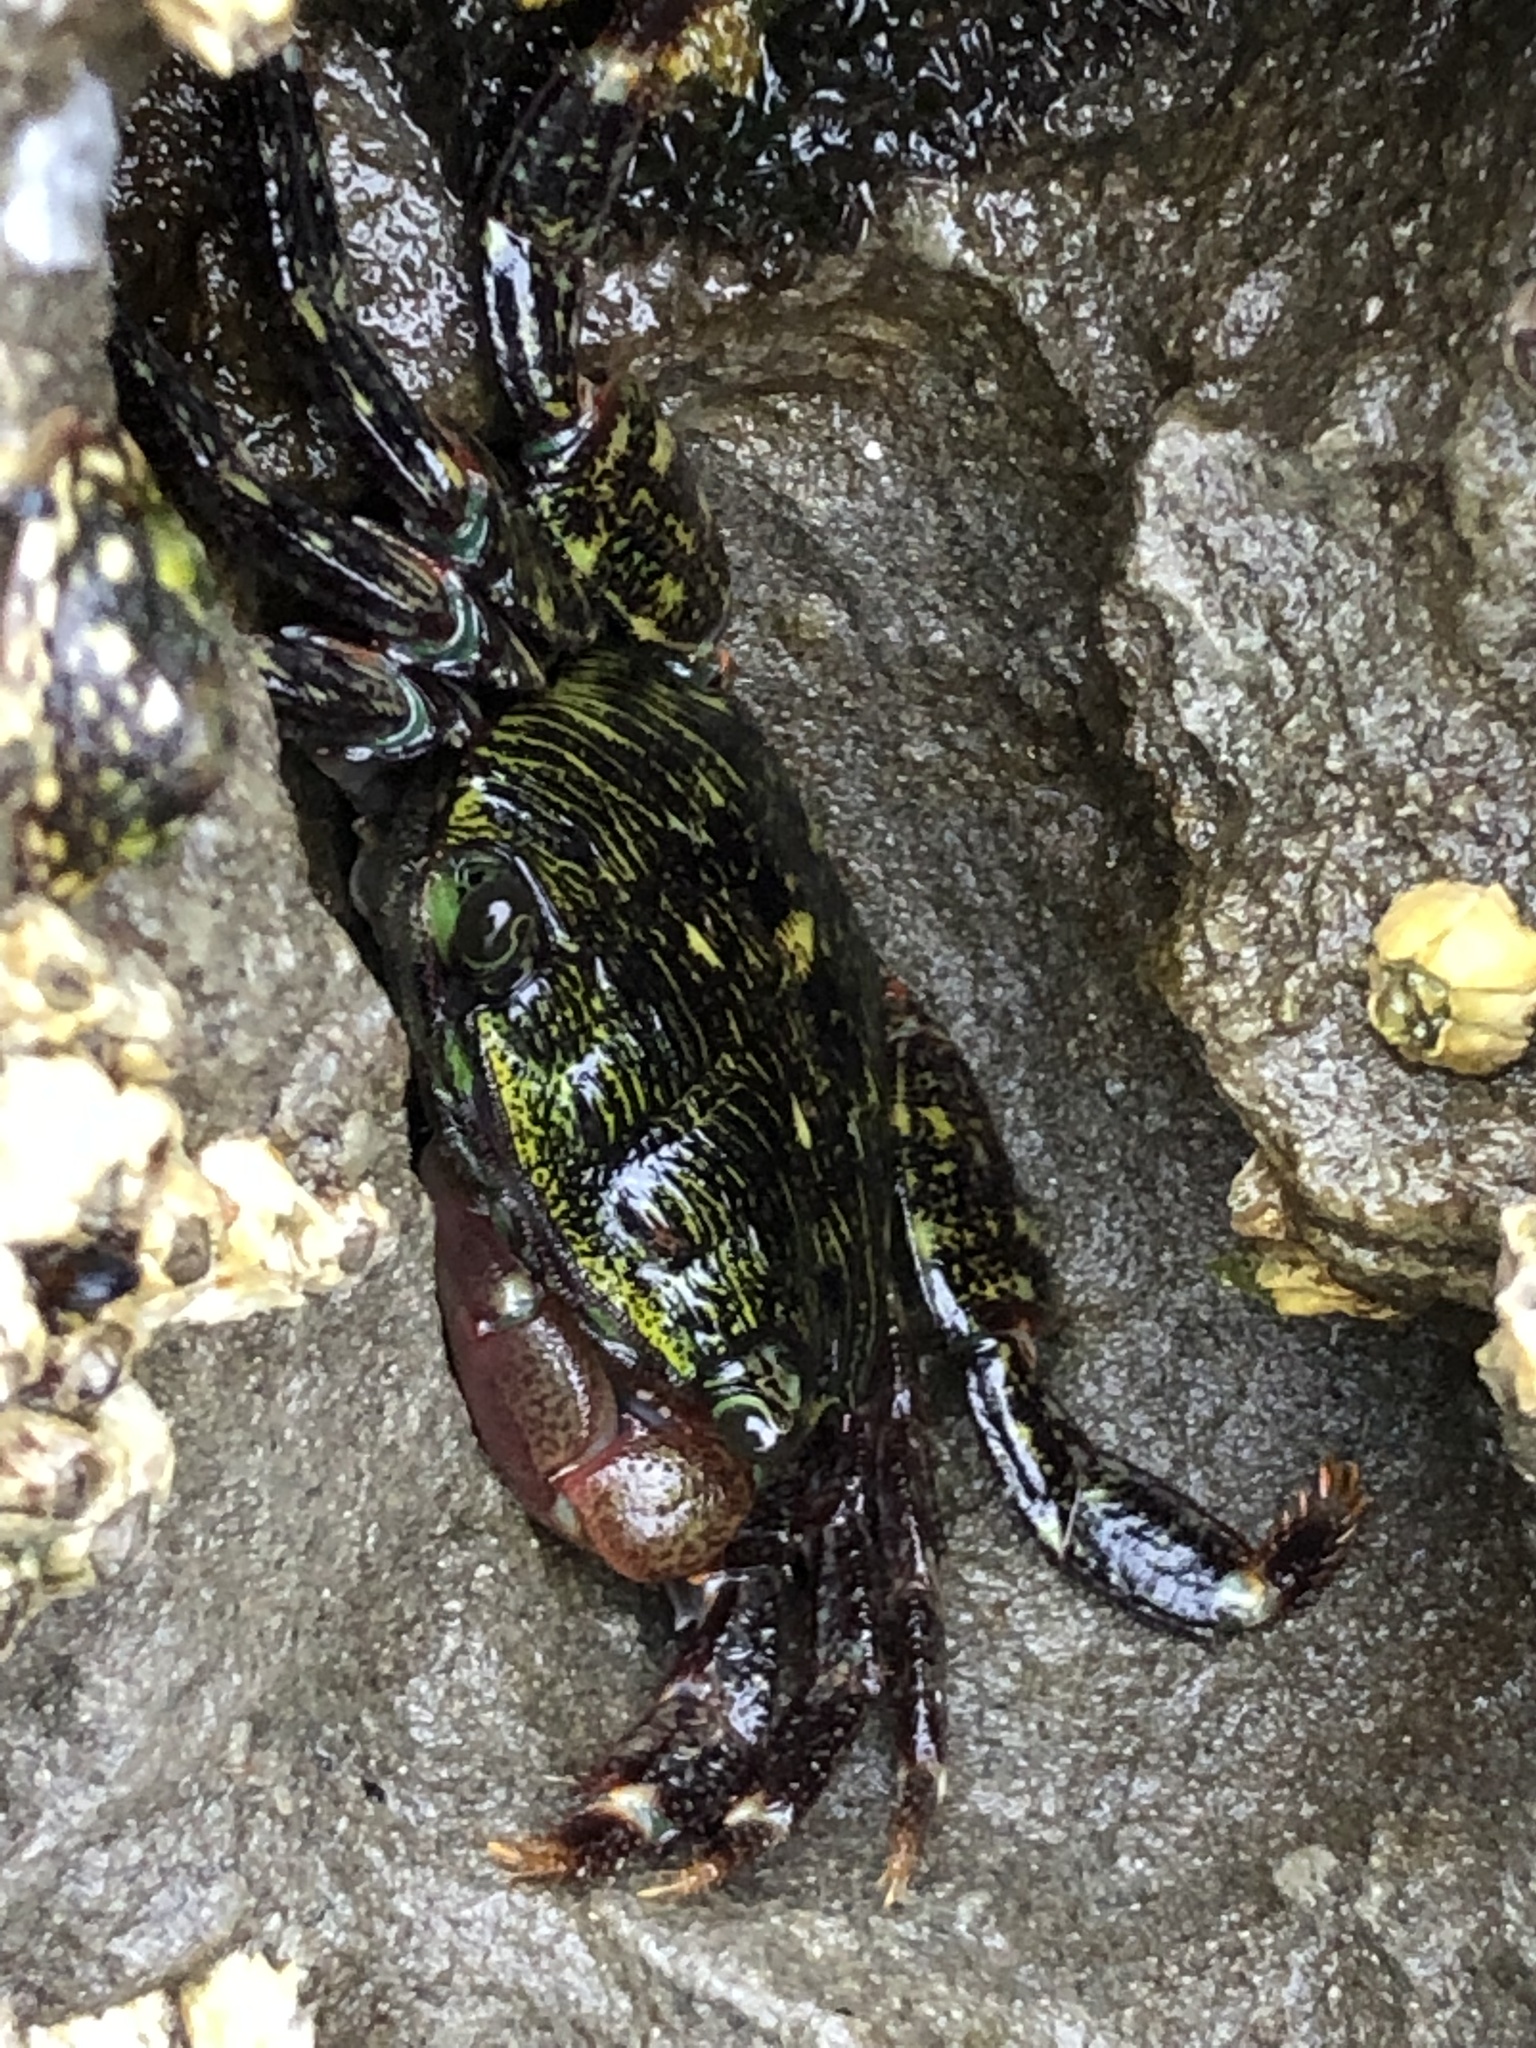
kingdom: Animalia
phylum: Arthropoda
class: Malacostraca
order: Decapoda
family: Grapsidae
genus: Pachygrapsus
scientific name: Pachygrapsus crassipes
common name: Striped shore crab
